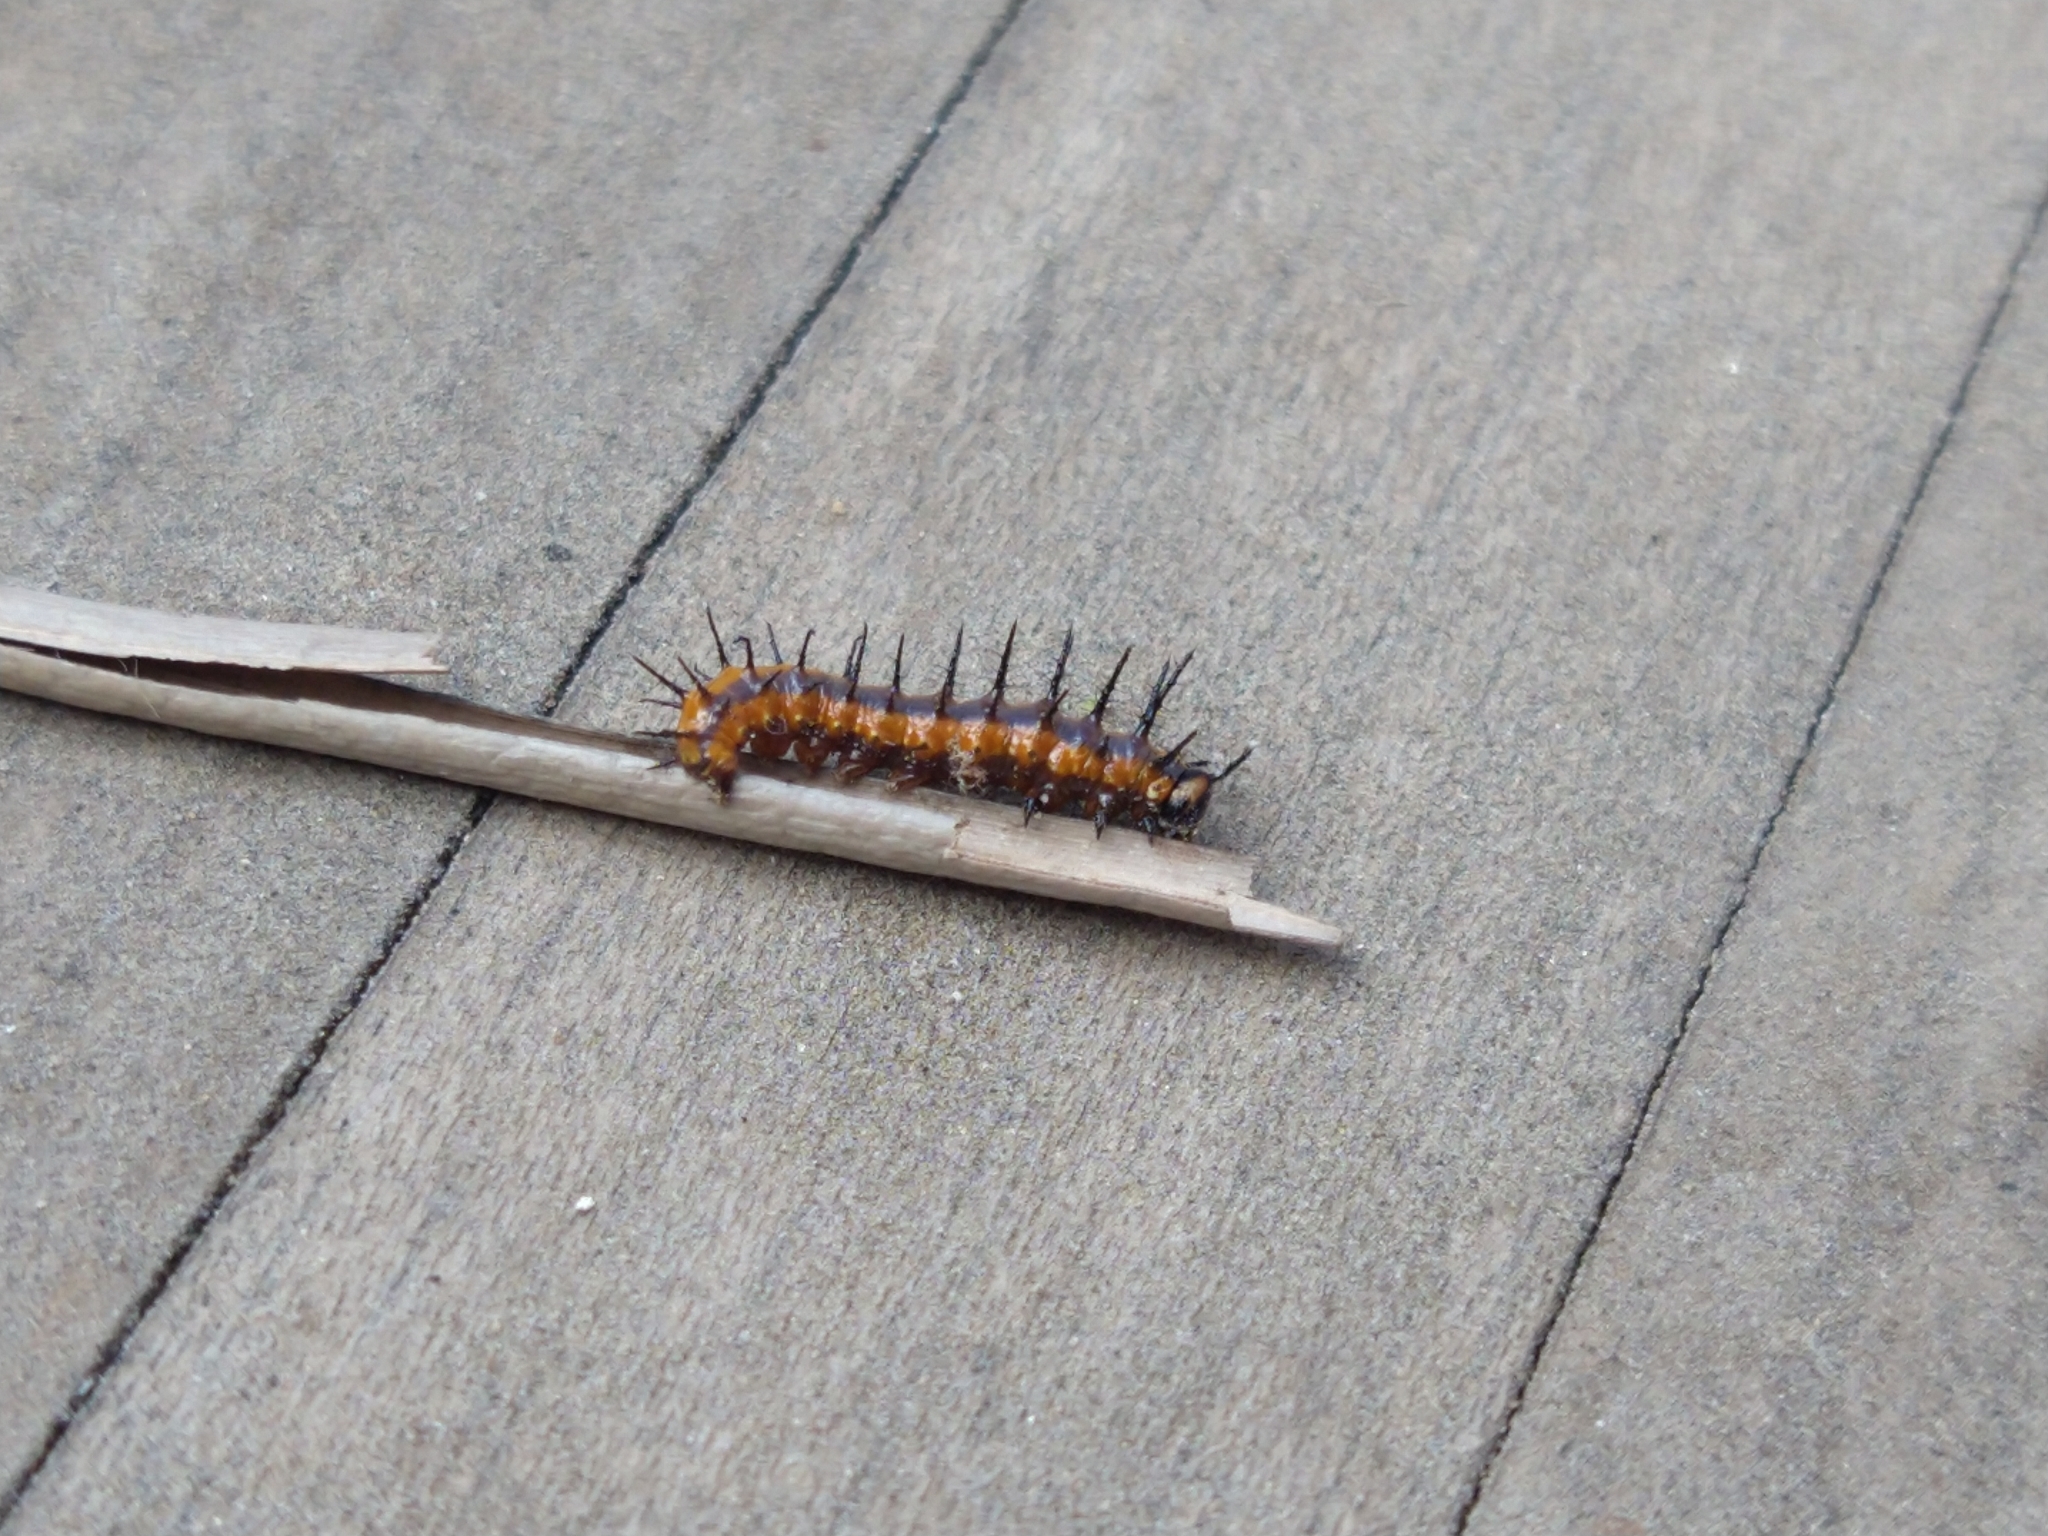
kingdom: Animalia
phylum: Arthropoda
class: Insecta
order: Lepidoptera
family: Nymphalidae
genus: Dione
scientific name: Dione vanillae
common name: Gulf fritillary
